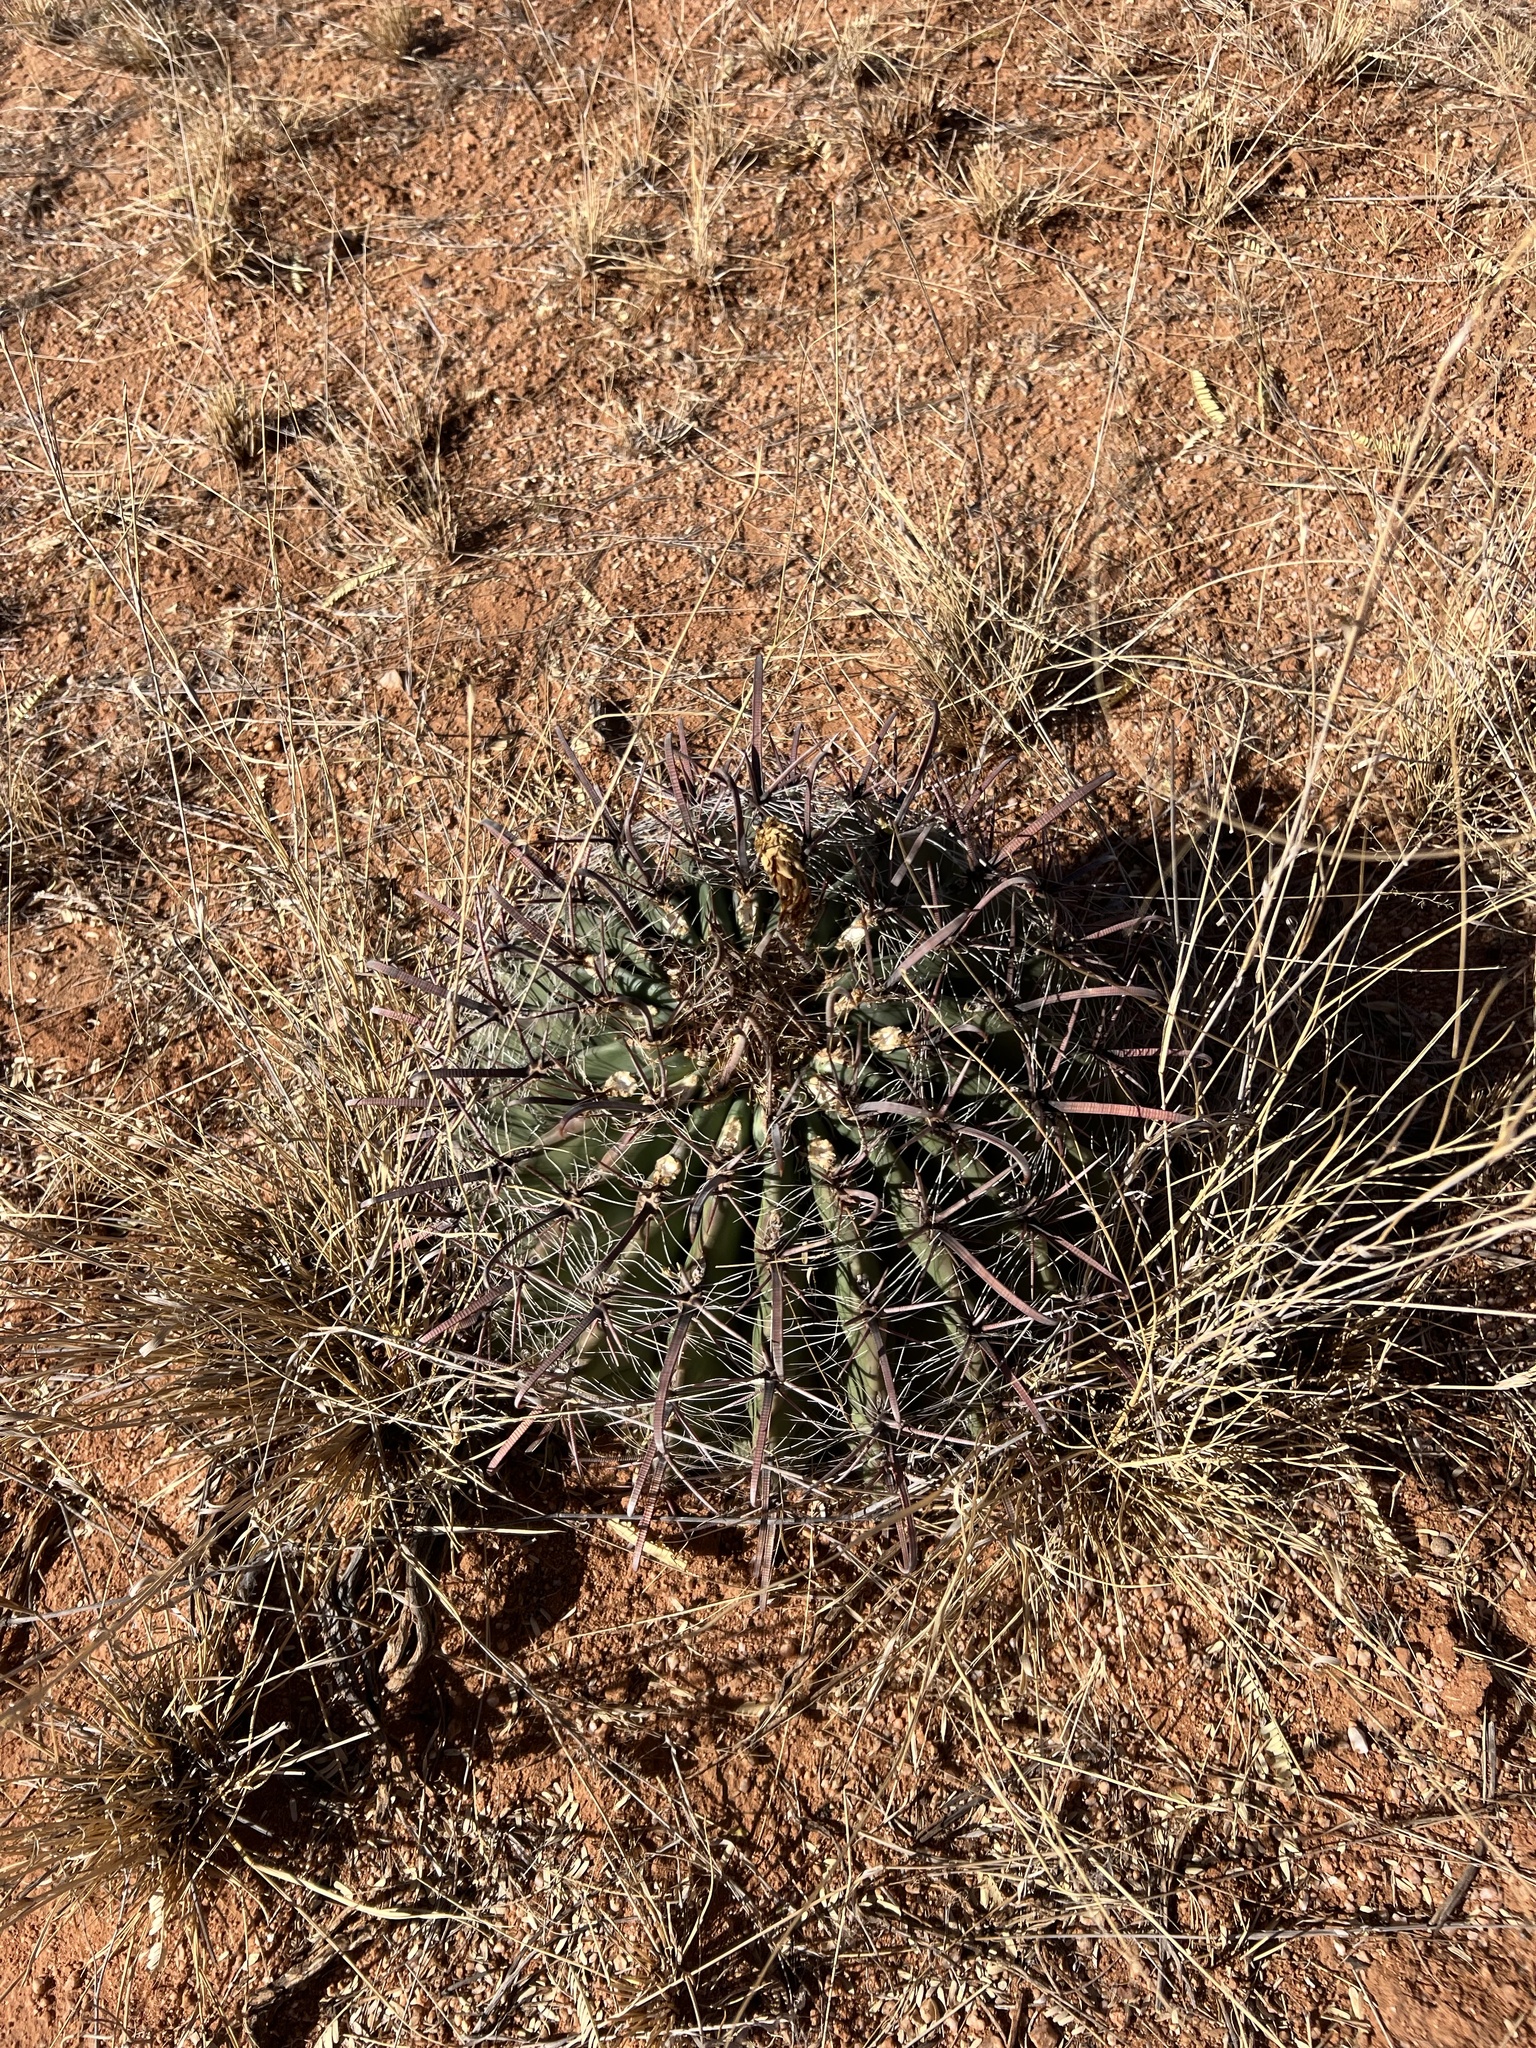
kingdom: Plantae
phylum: Tracheophyta
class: Magnoliopsida
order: Caryophyllales
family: Cactaceae
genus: Ferocactus
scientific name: Ferocactus wislizeni
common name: Candy barrel cactus
